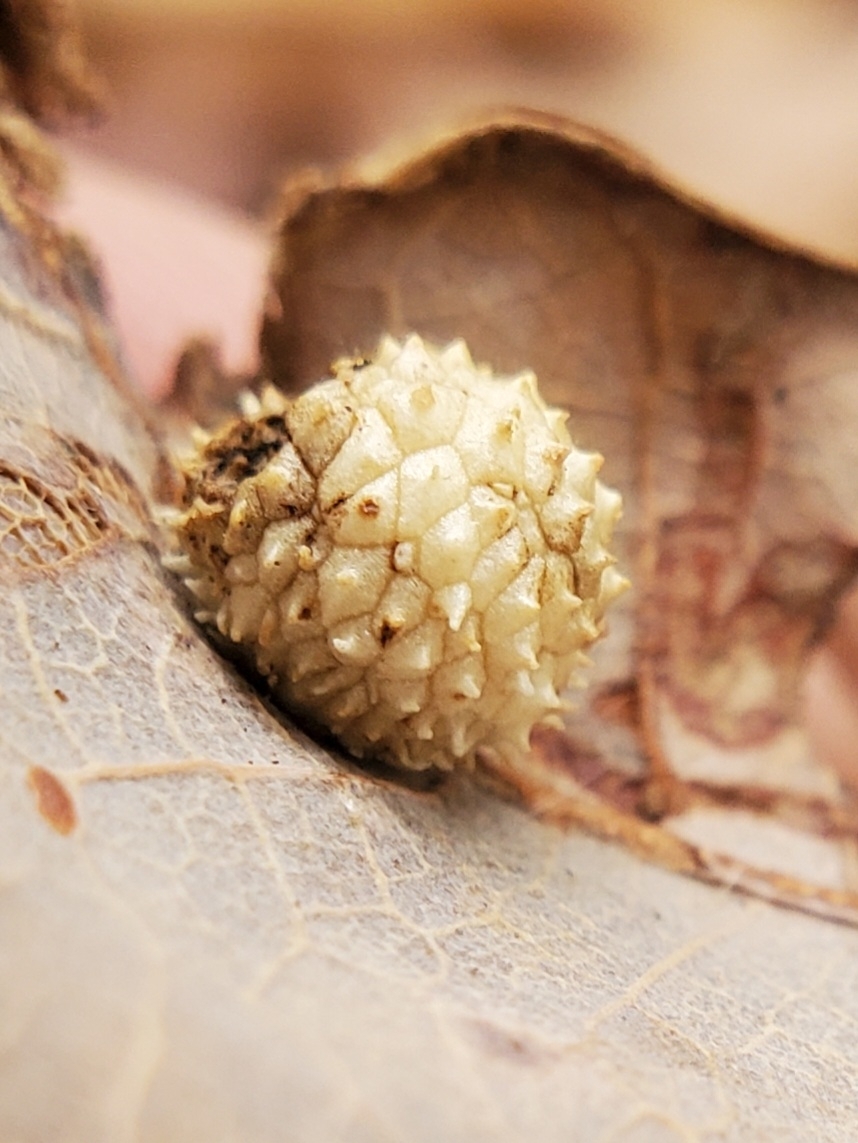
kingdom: Animalia
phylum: Arthropoda
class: Insecta
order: Hymenoptera
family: Cynipidae
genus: Acraspis
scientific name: Acraspis
